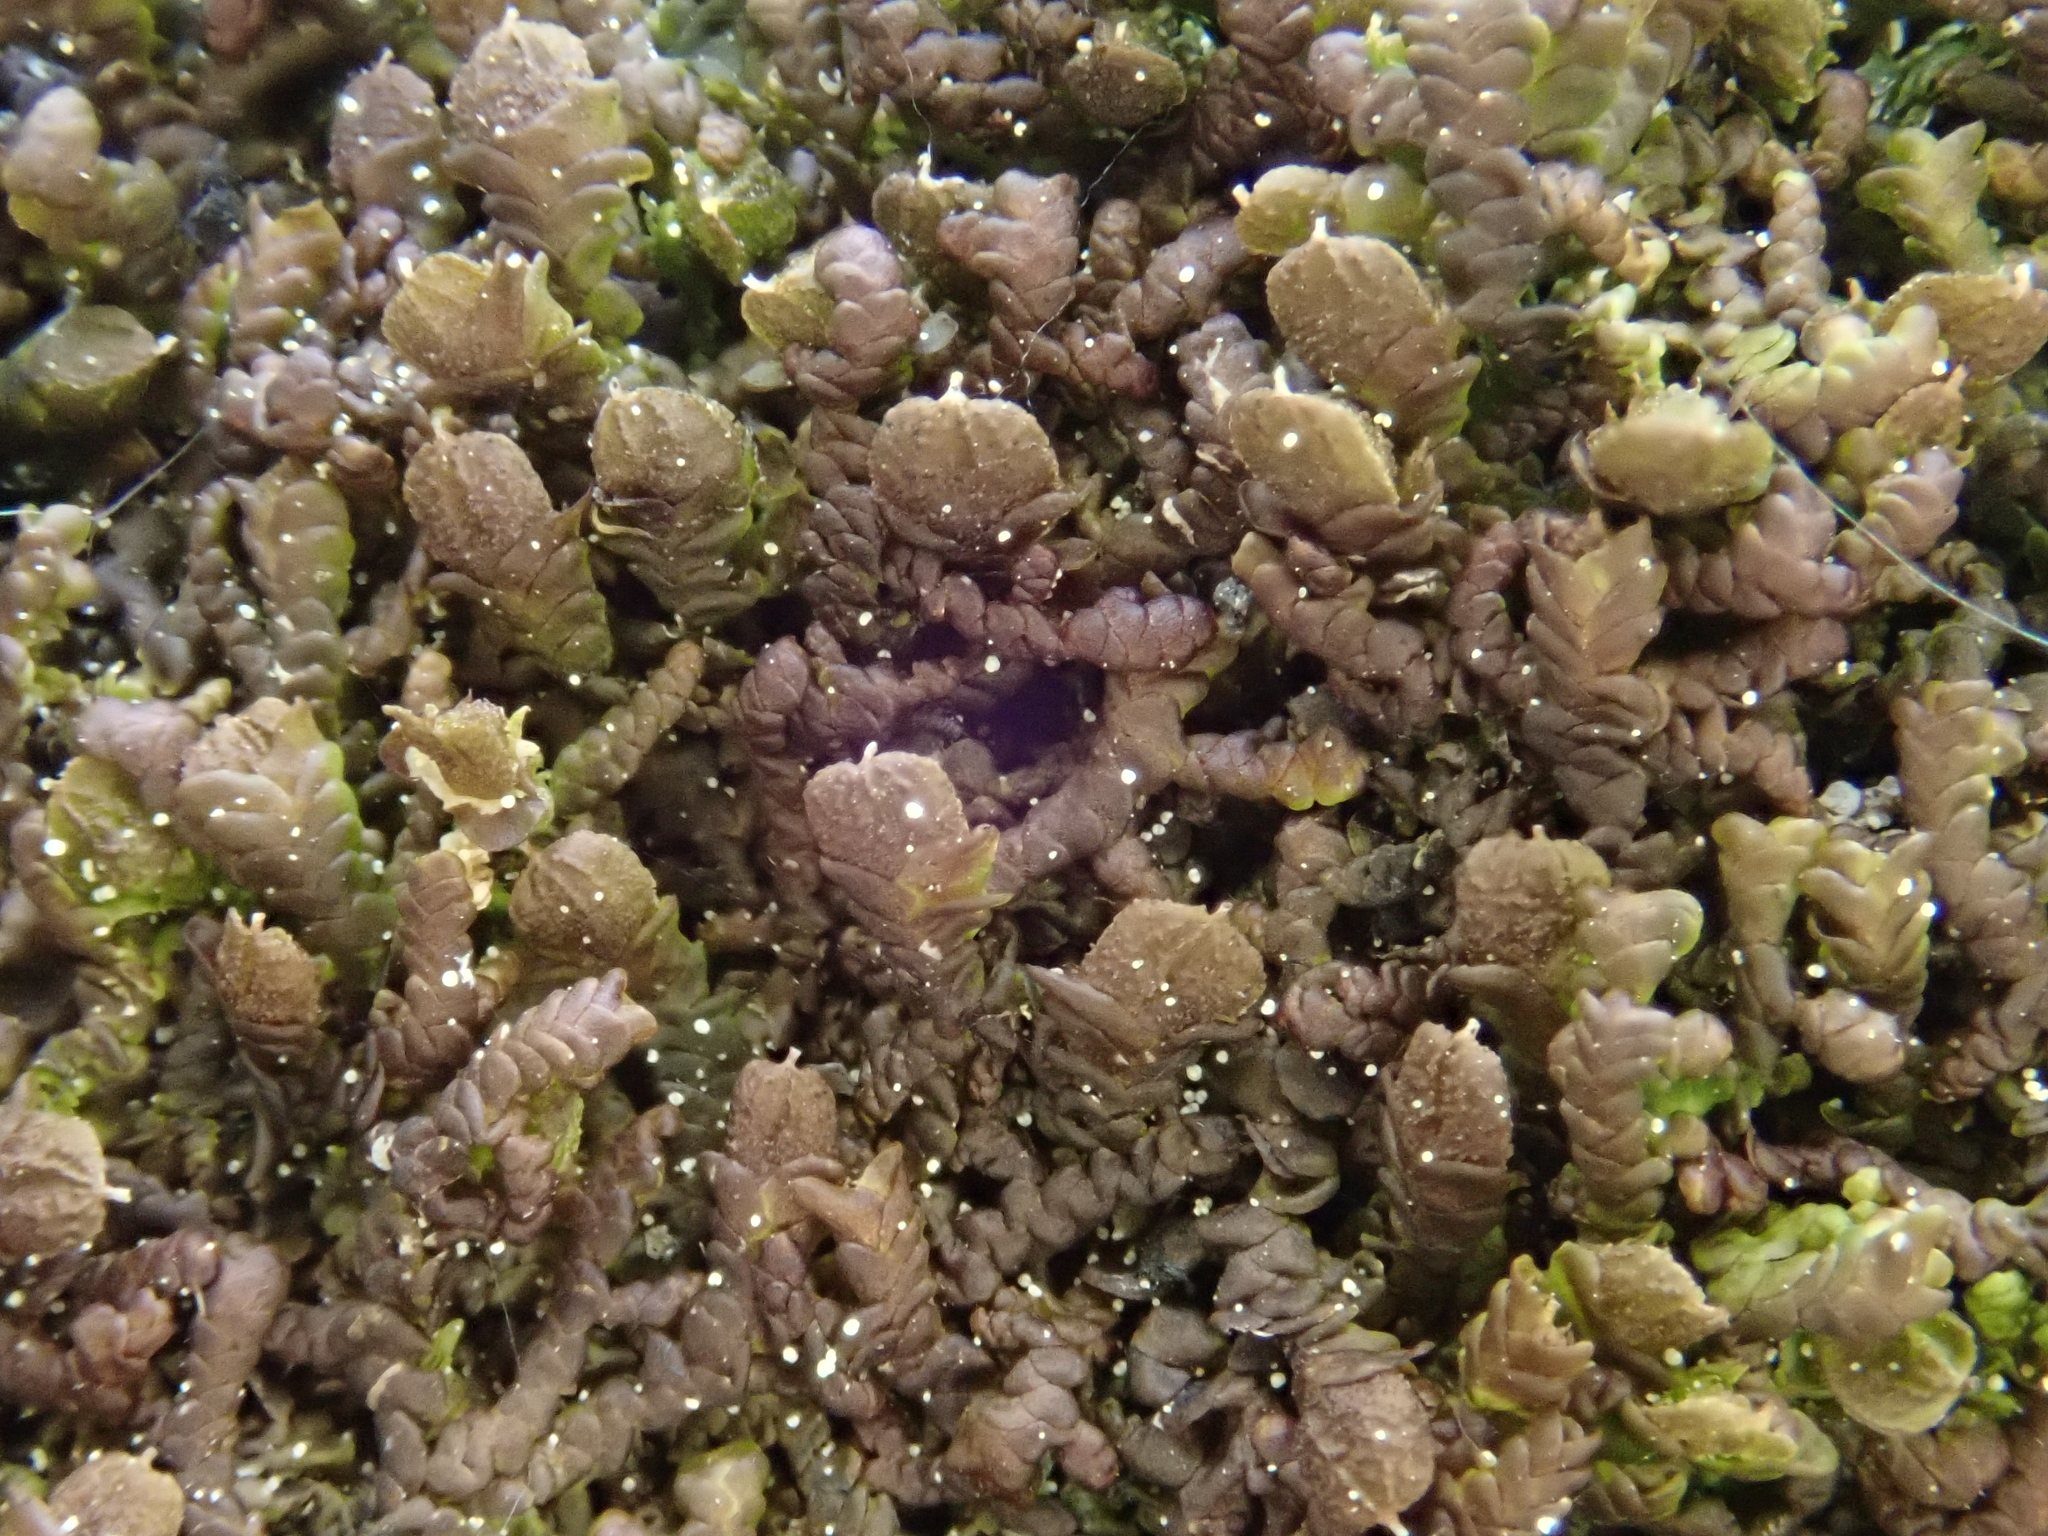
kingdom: Plantae
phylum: Marchantiophyta
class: Jungermanniopsida
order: Porellales
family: Frullaniaceae
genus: Frullania
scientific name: Frullania dilatata
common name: Dilated scalewort
